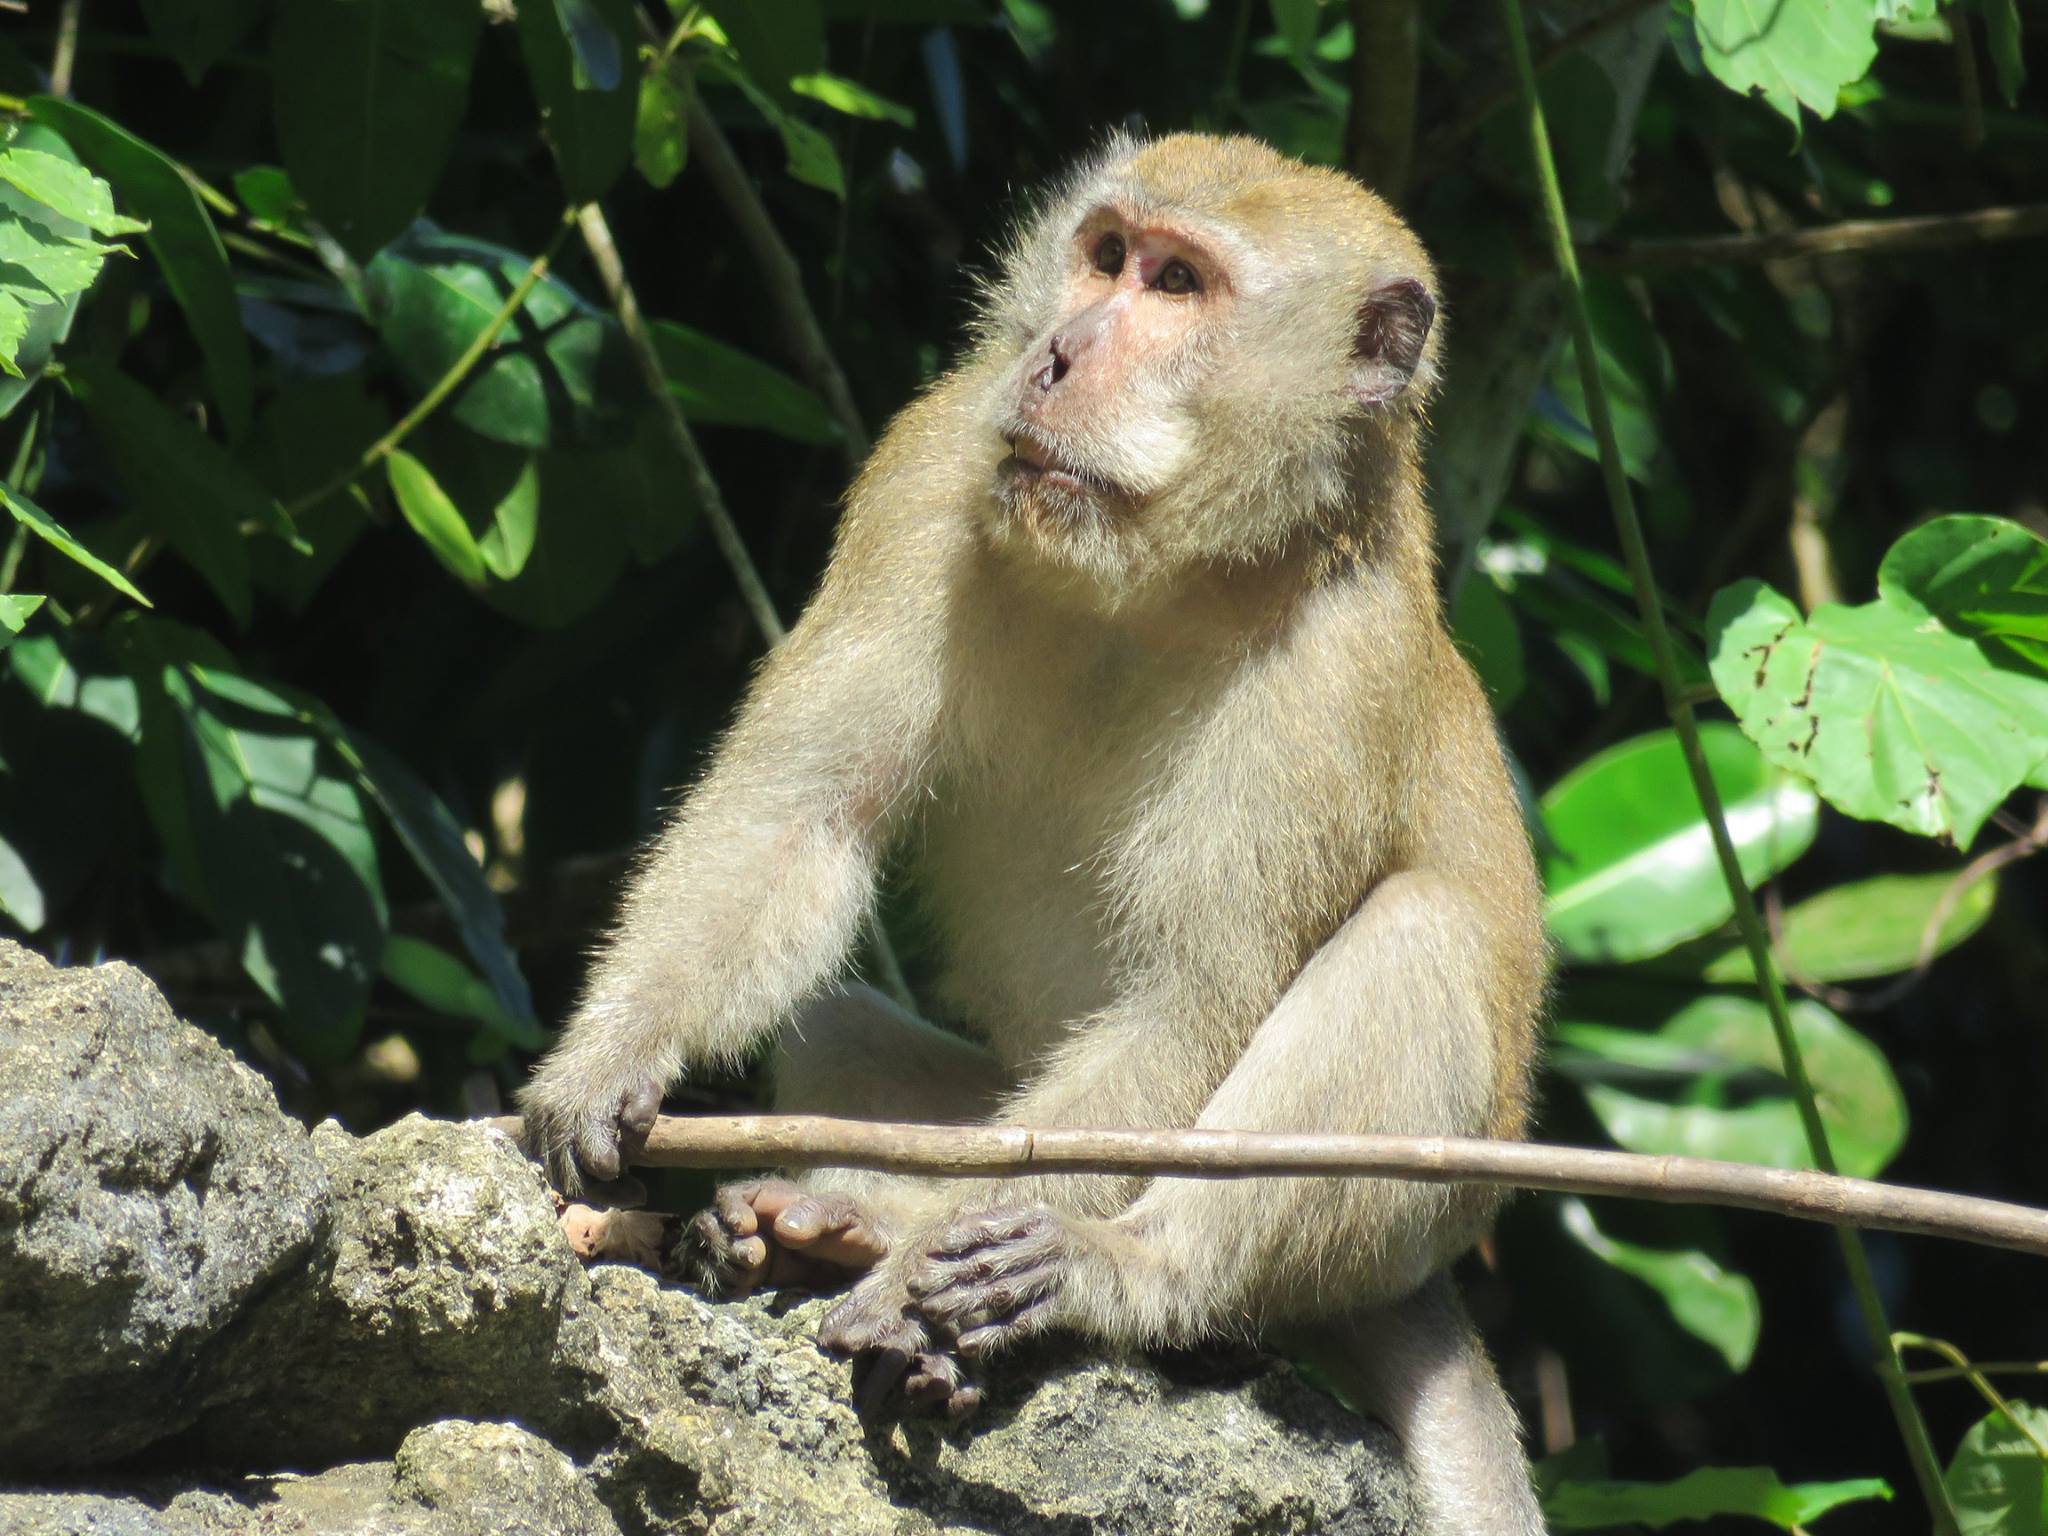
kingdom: Animalia
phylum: Chordata
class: Mammalia
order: Primates
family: Cercopithecidae
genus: Macaca
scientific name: Macaca fascicularis
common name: Crab-eating macaque
